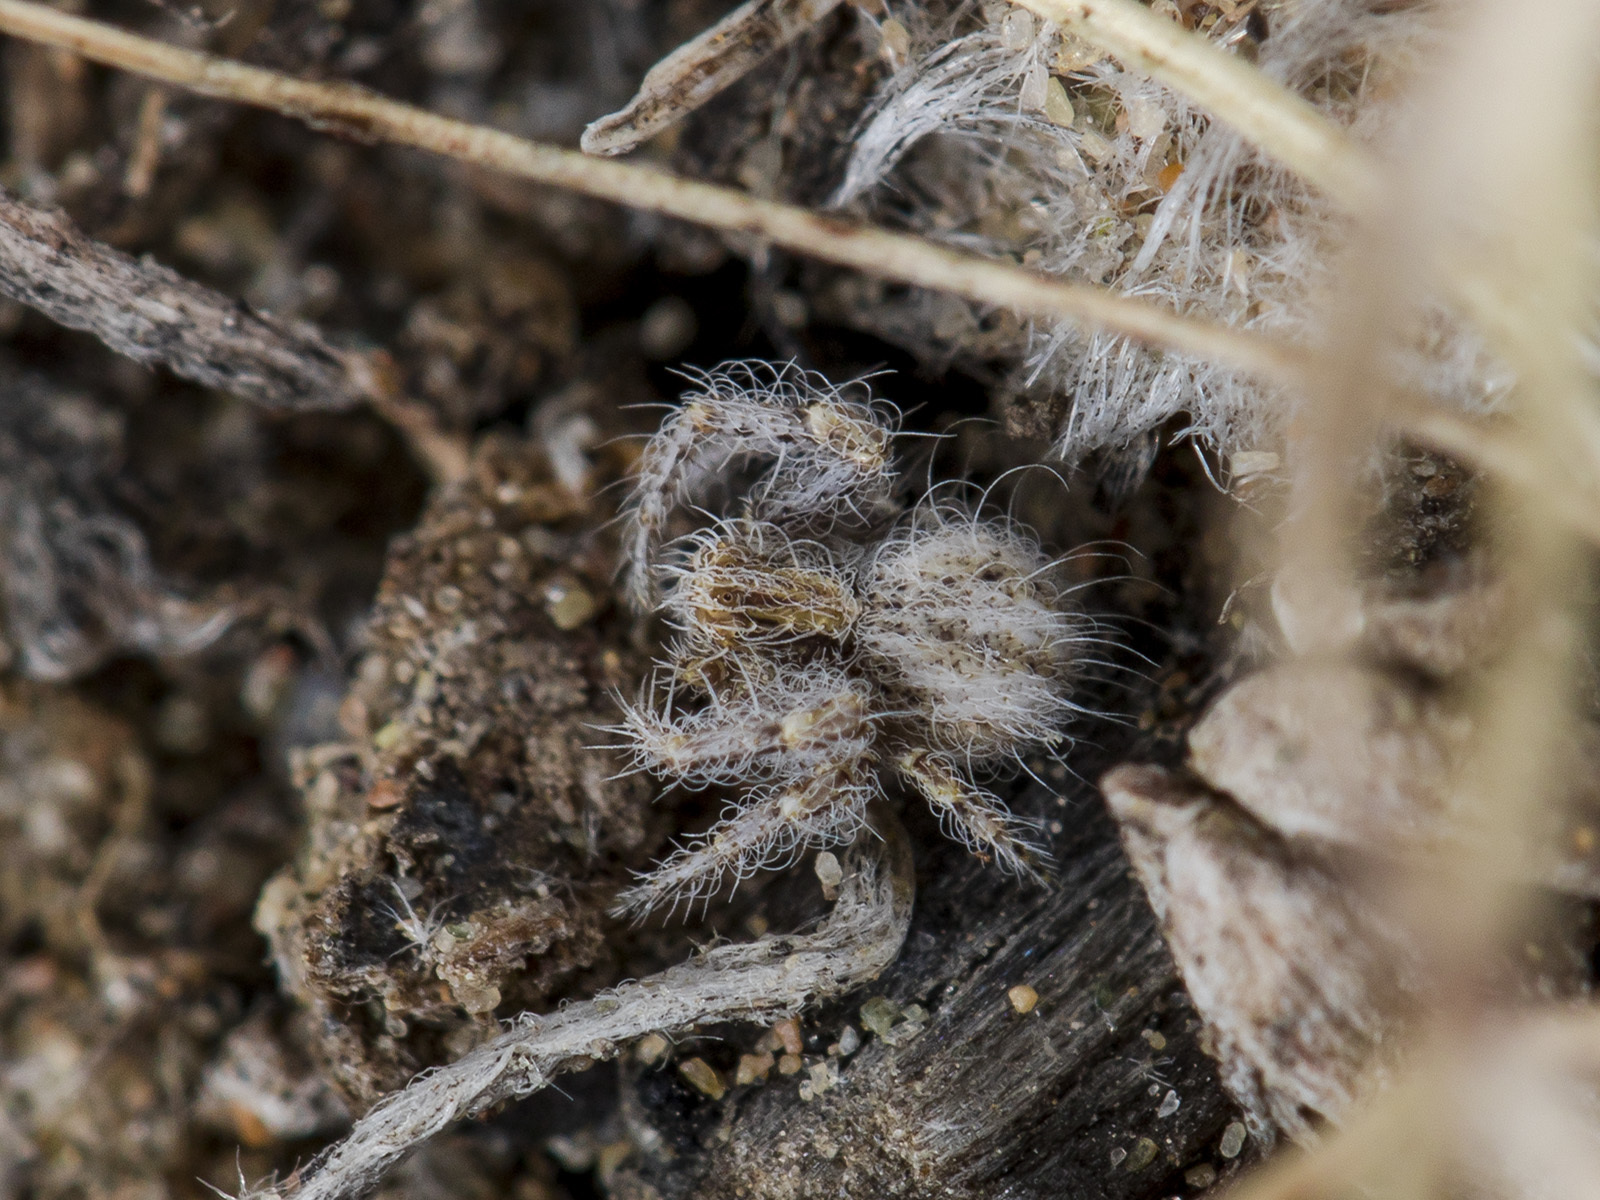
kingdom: Animalia
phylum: Arthropoda
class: Arachnida
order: Araneae
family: Thomisidae
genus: Heriaeus
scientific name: Heriaeus horridus
